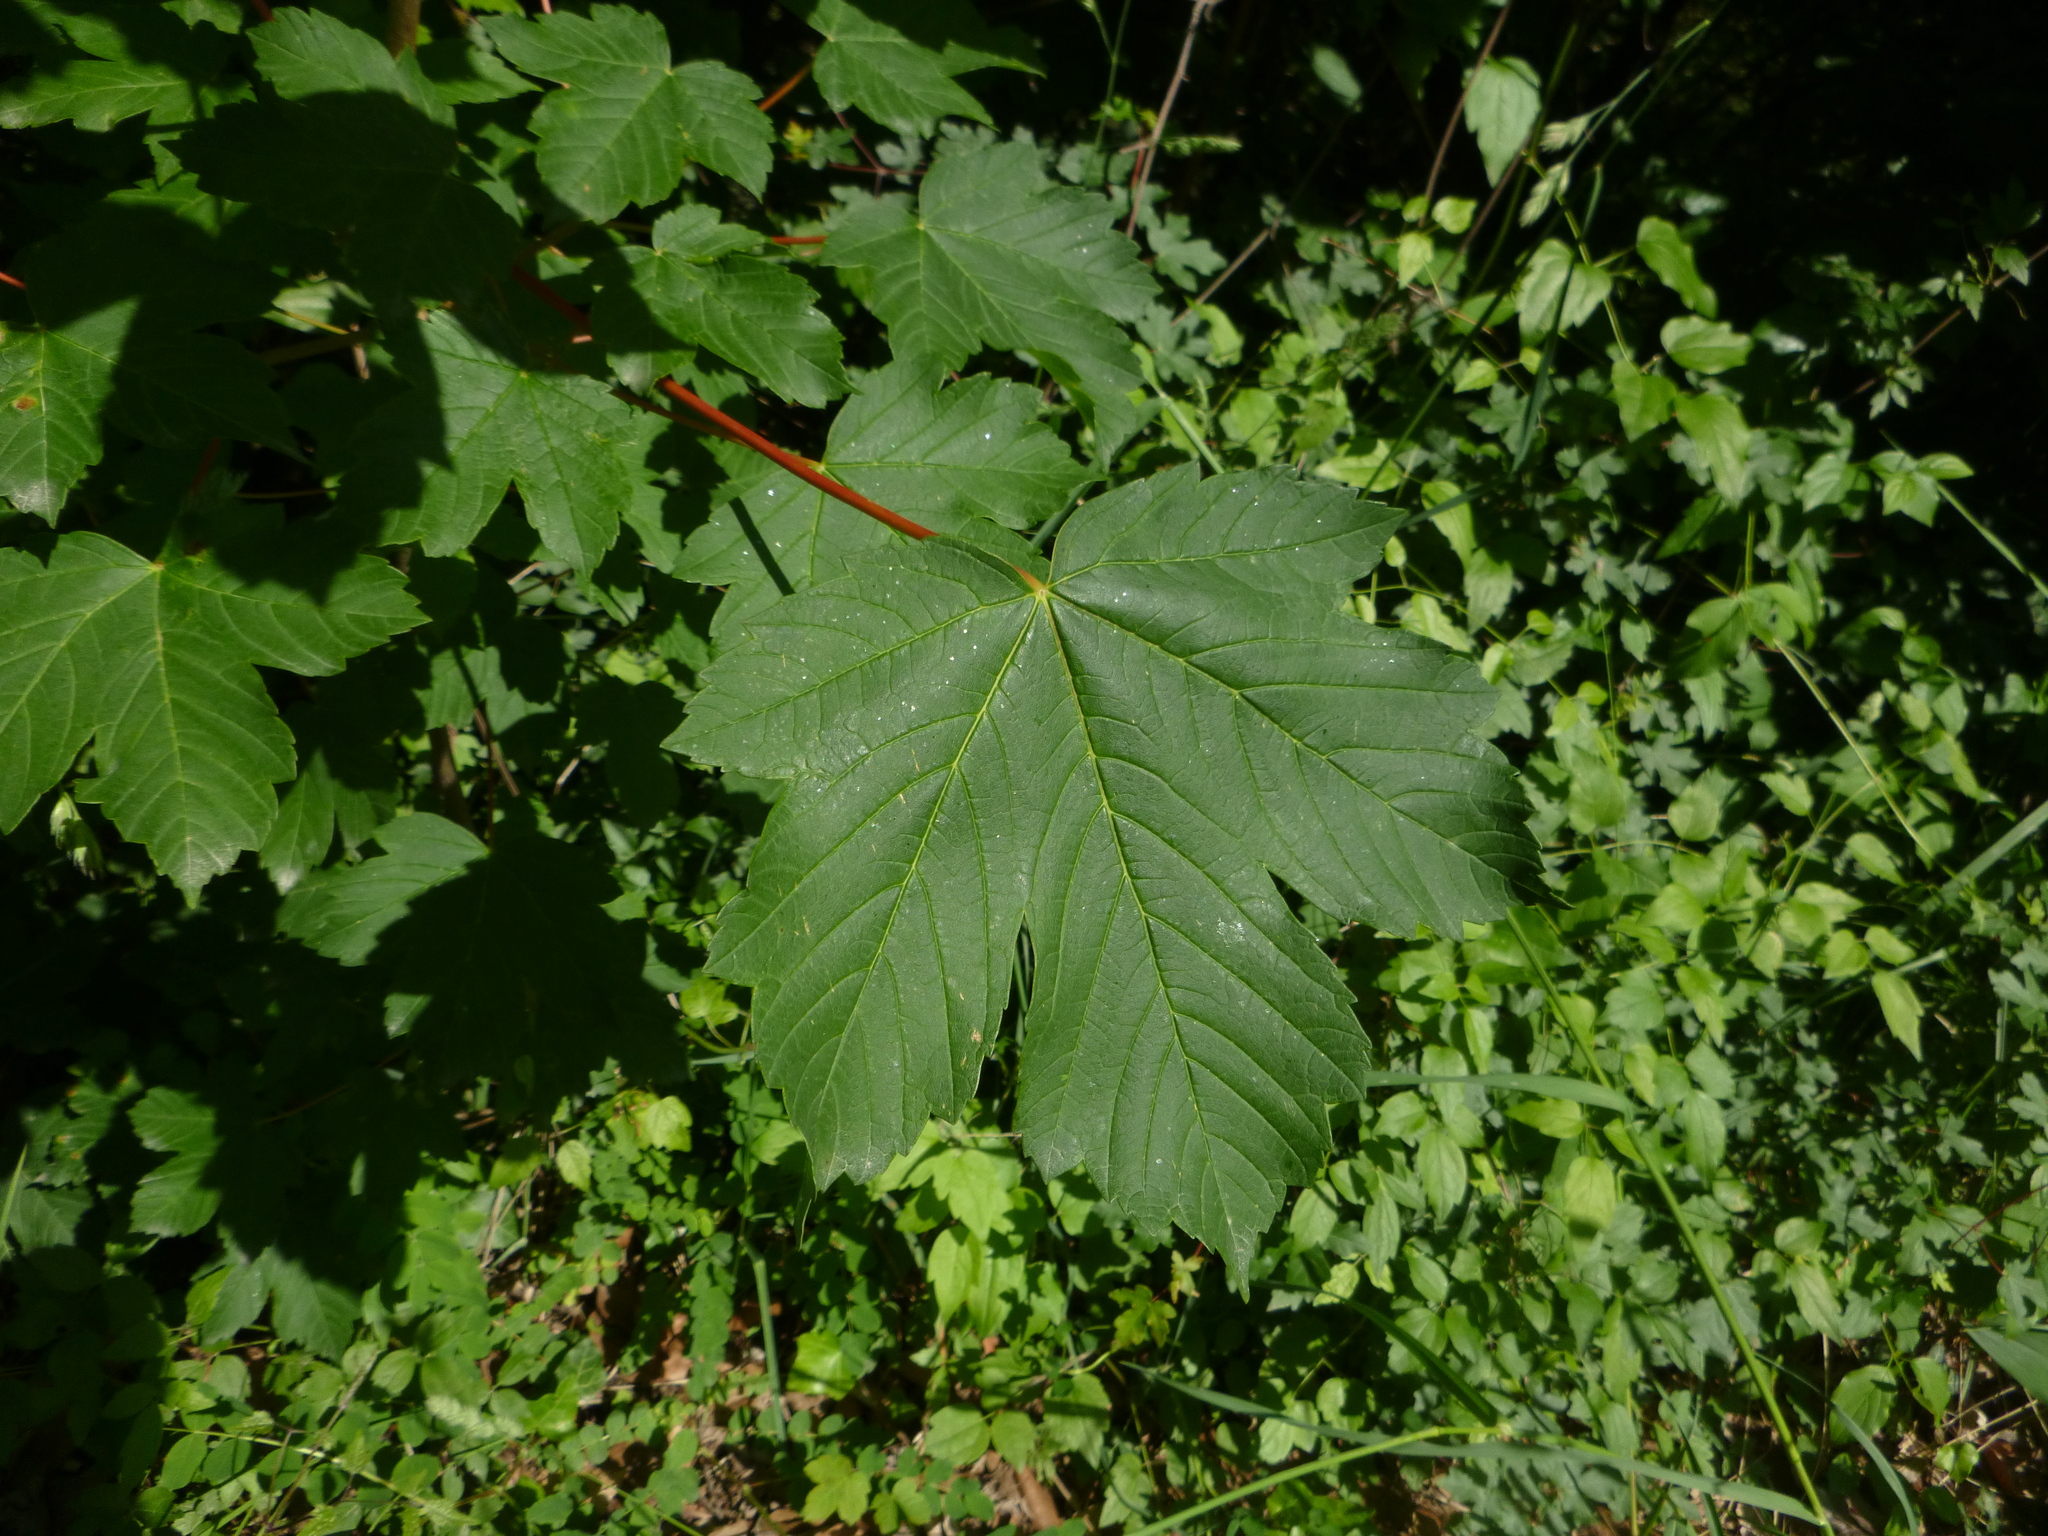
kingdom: Plantae
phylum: Tracheophyta
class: Magnoliopsida
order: Sapindales
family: Sapindaceae
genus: Acer
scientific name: Acer pseudoplatanus
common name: Sycamore
